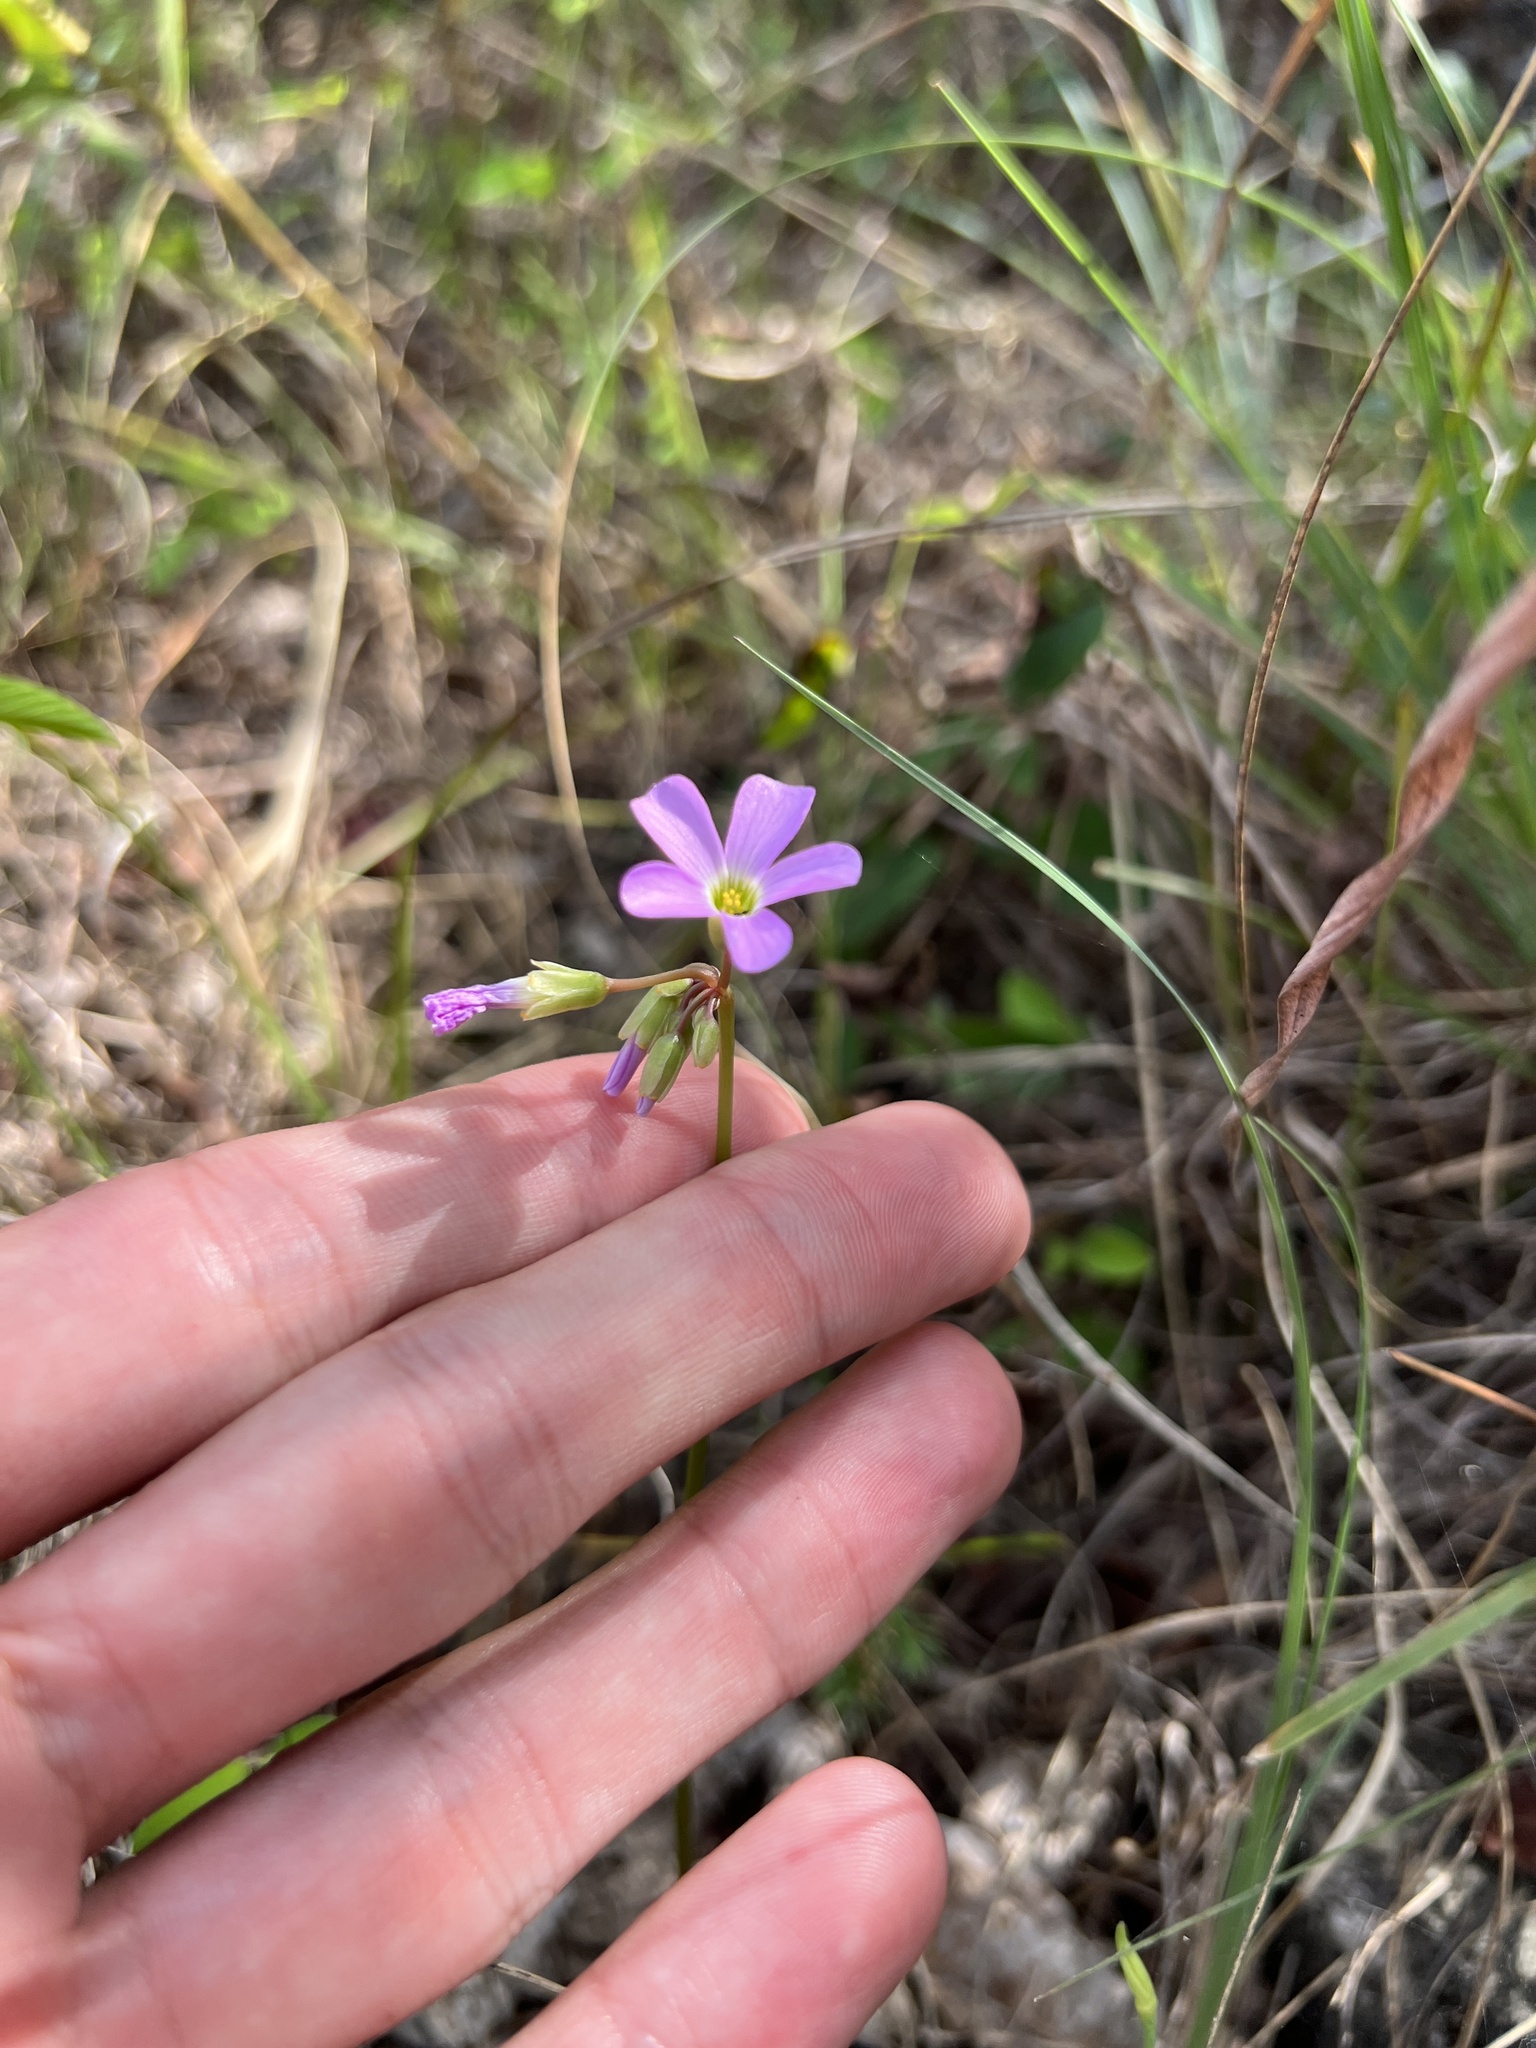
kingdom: Plantae
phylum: Tracheophyta
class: Magnoliopsida
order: Oxalidales
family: Oxalidaceae
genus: Oxalis
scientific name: Oxalis violacea
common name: Violet wood-sorrel
